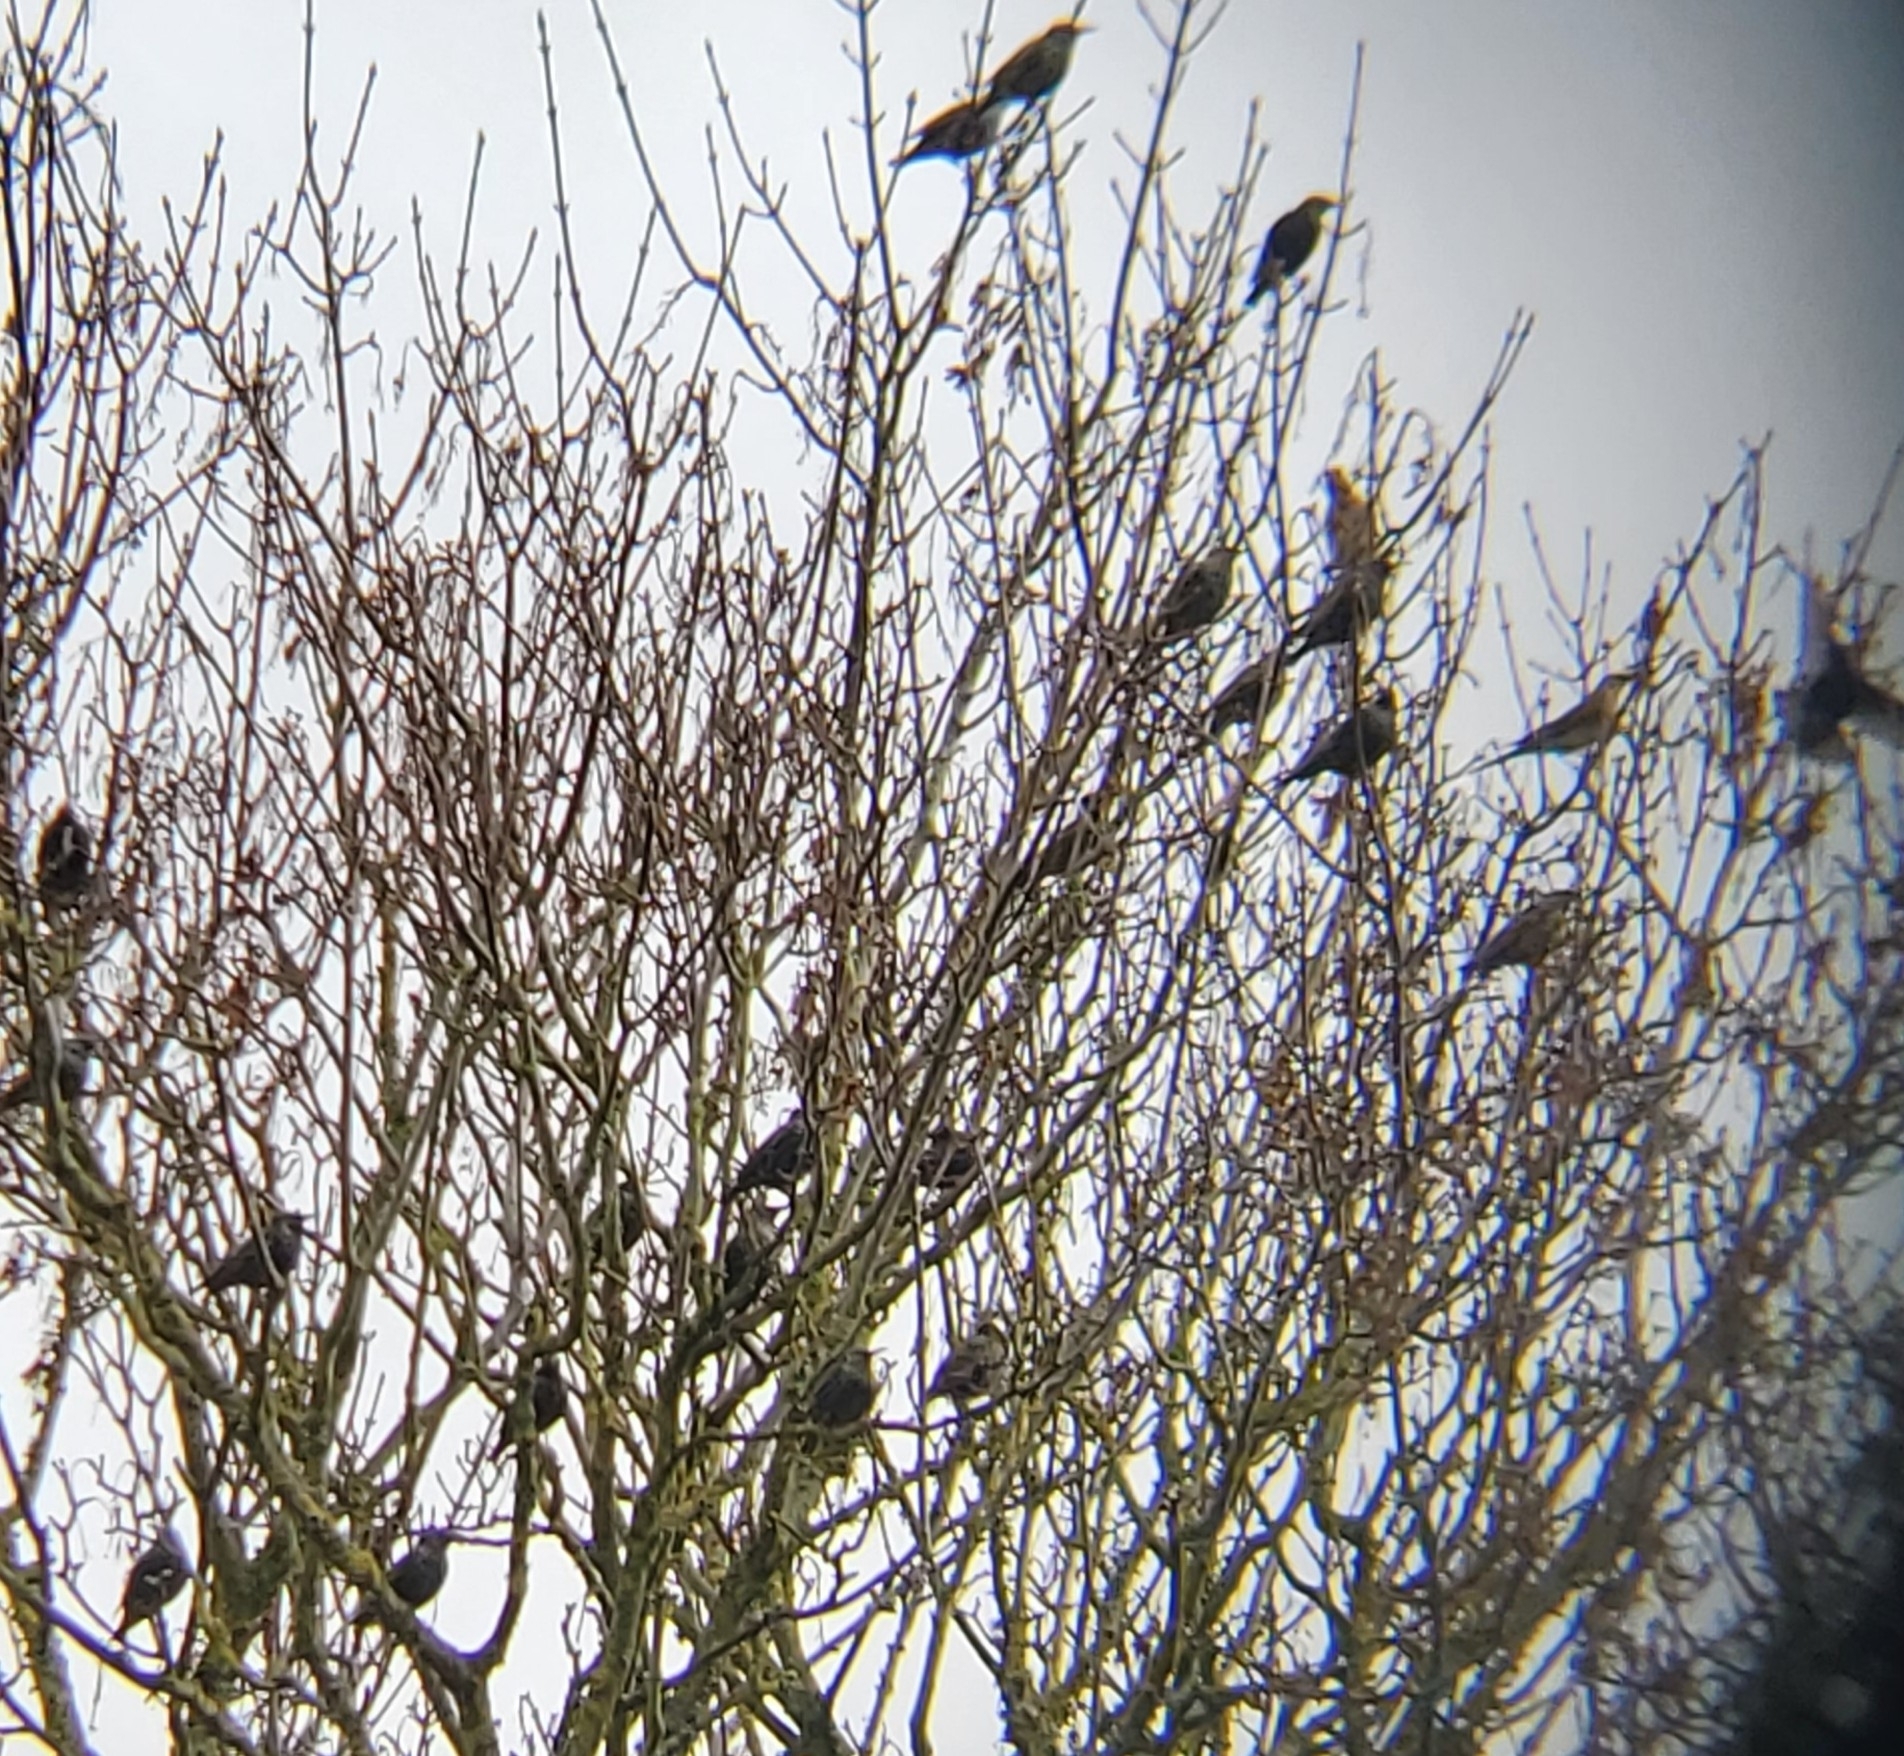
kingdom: Animalia
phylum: Chordata
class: Aves
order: Passeriformes
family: Sturnidae
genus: Sturnus
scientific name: Sturnus vulgaris
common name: Common starling
